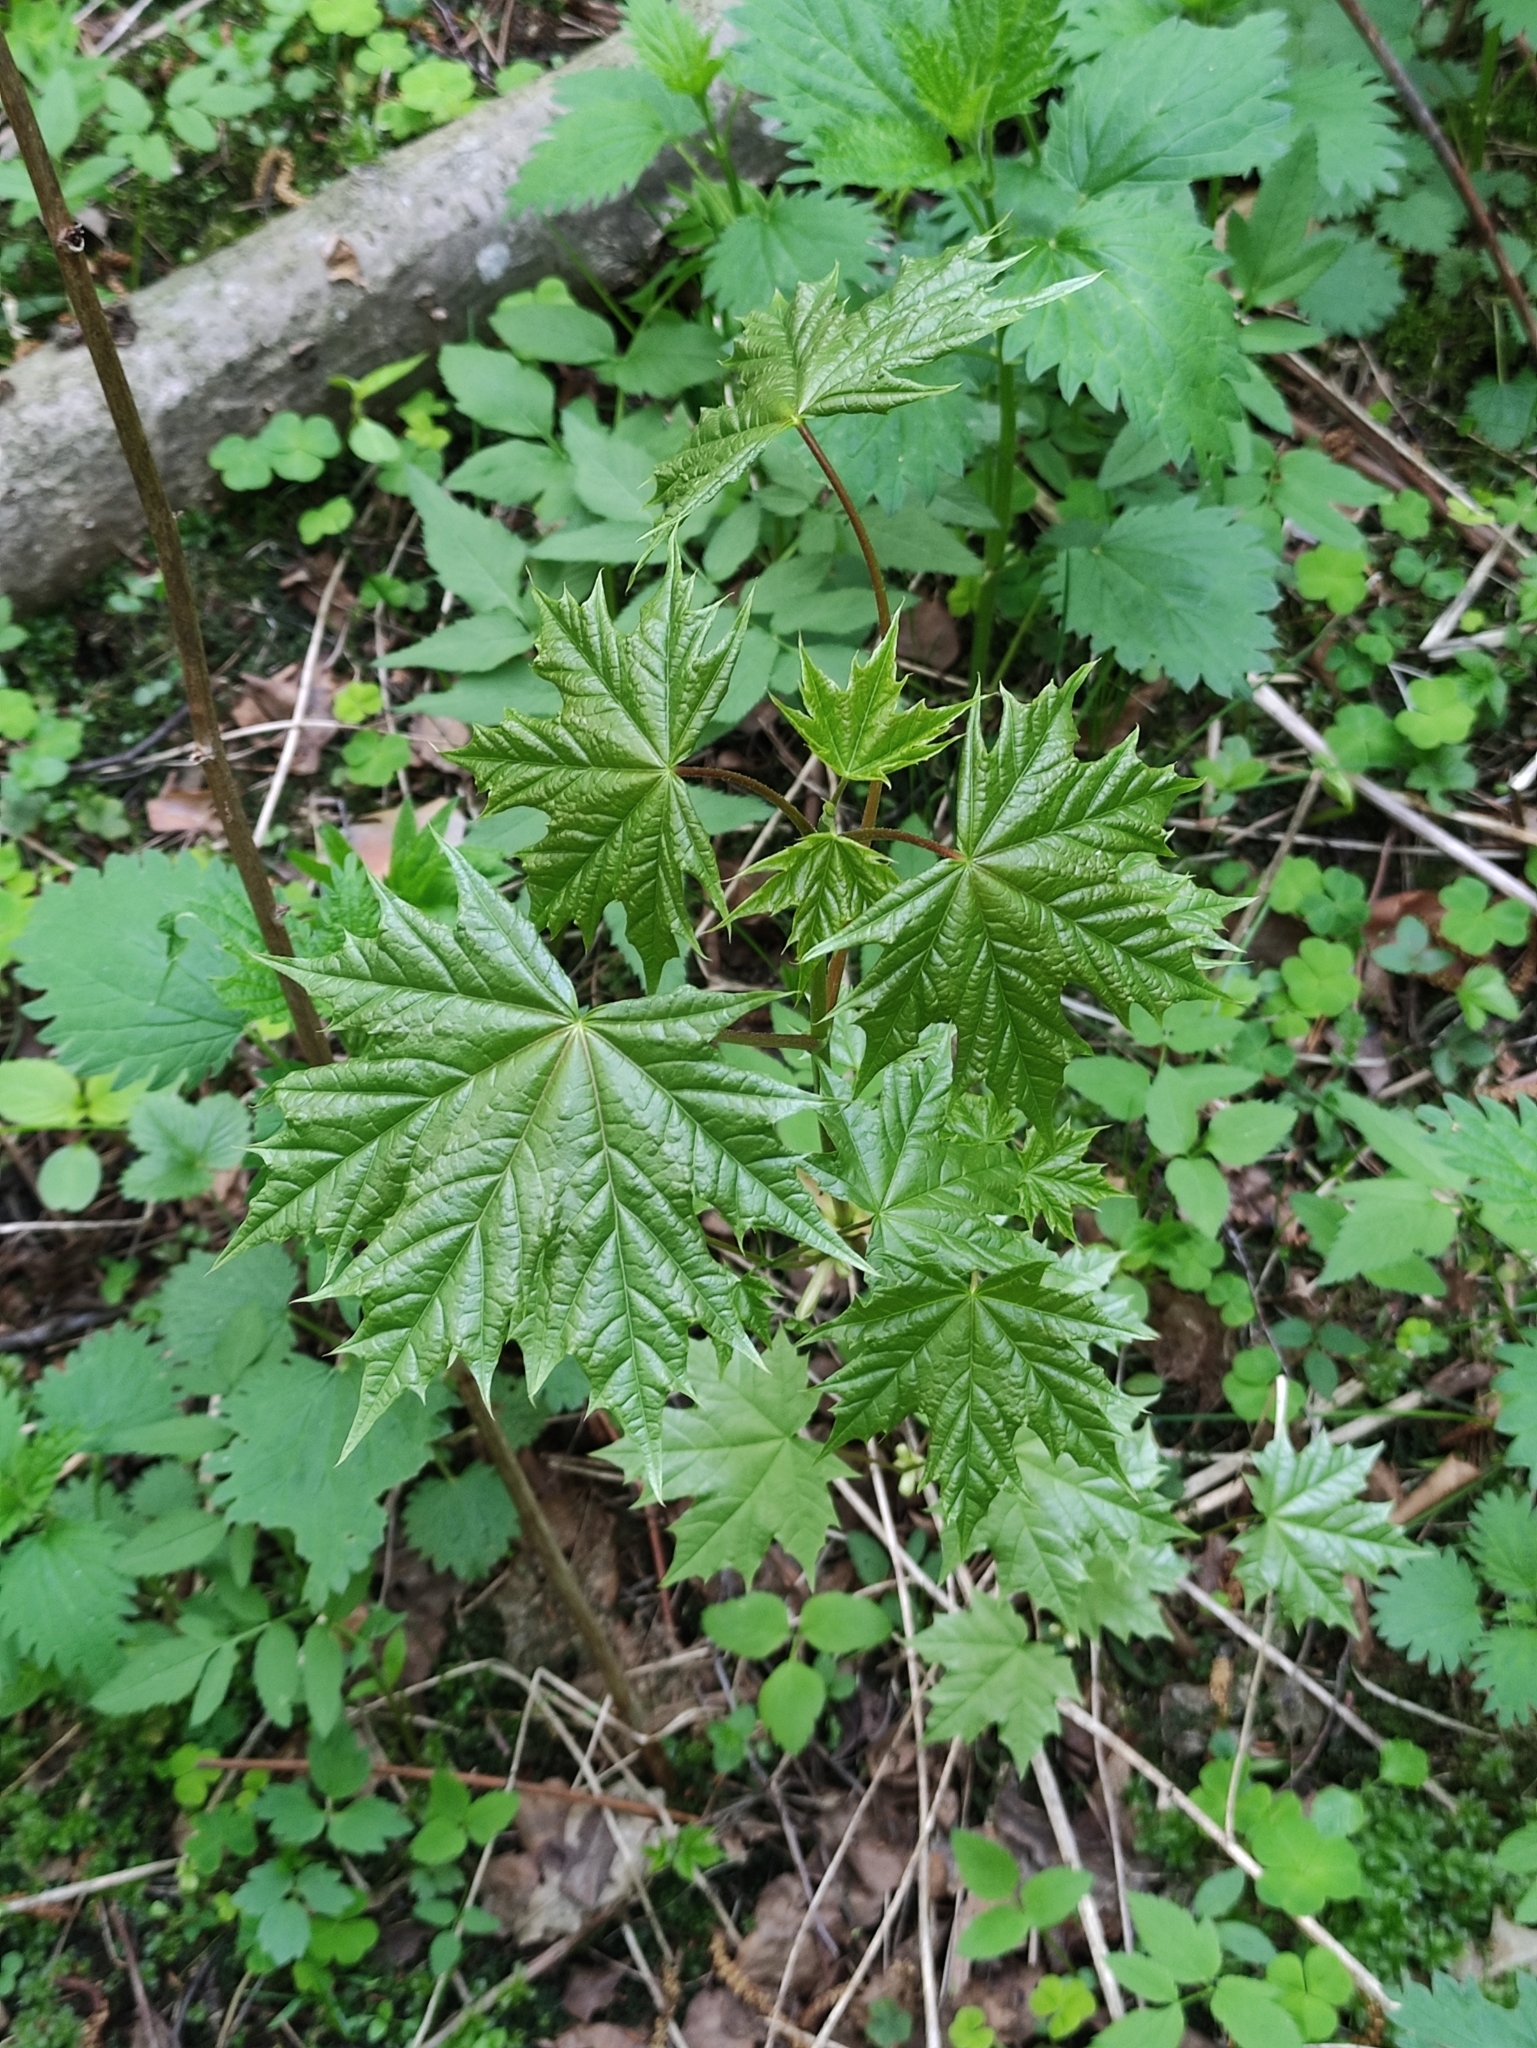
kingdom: Plantae
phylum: Tracheophyta
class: Magnoliopsida
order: Sapindales
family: Sapindaceae
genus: Acer
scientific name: Acer platanoides
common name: Norway maple
